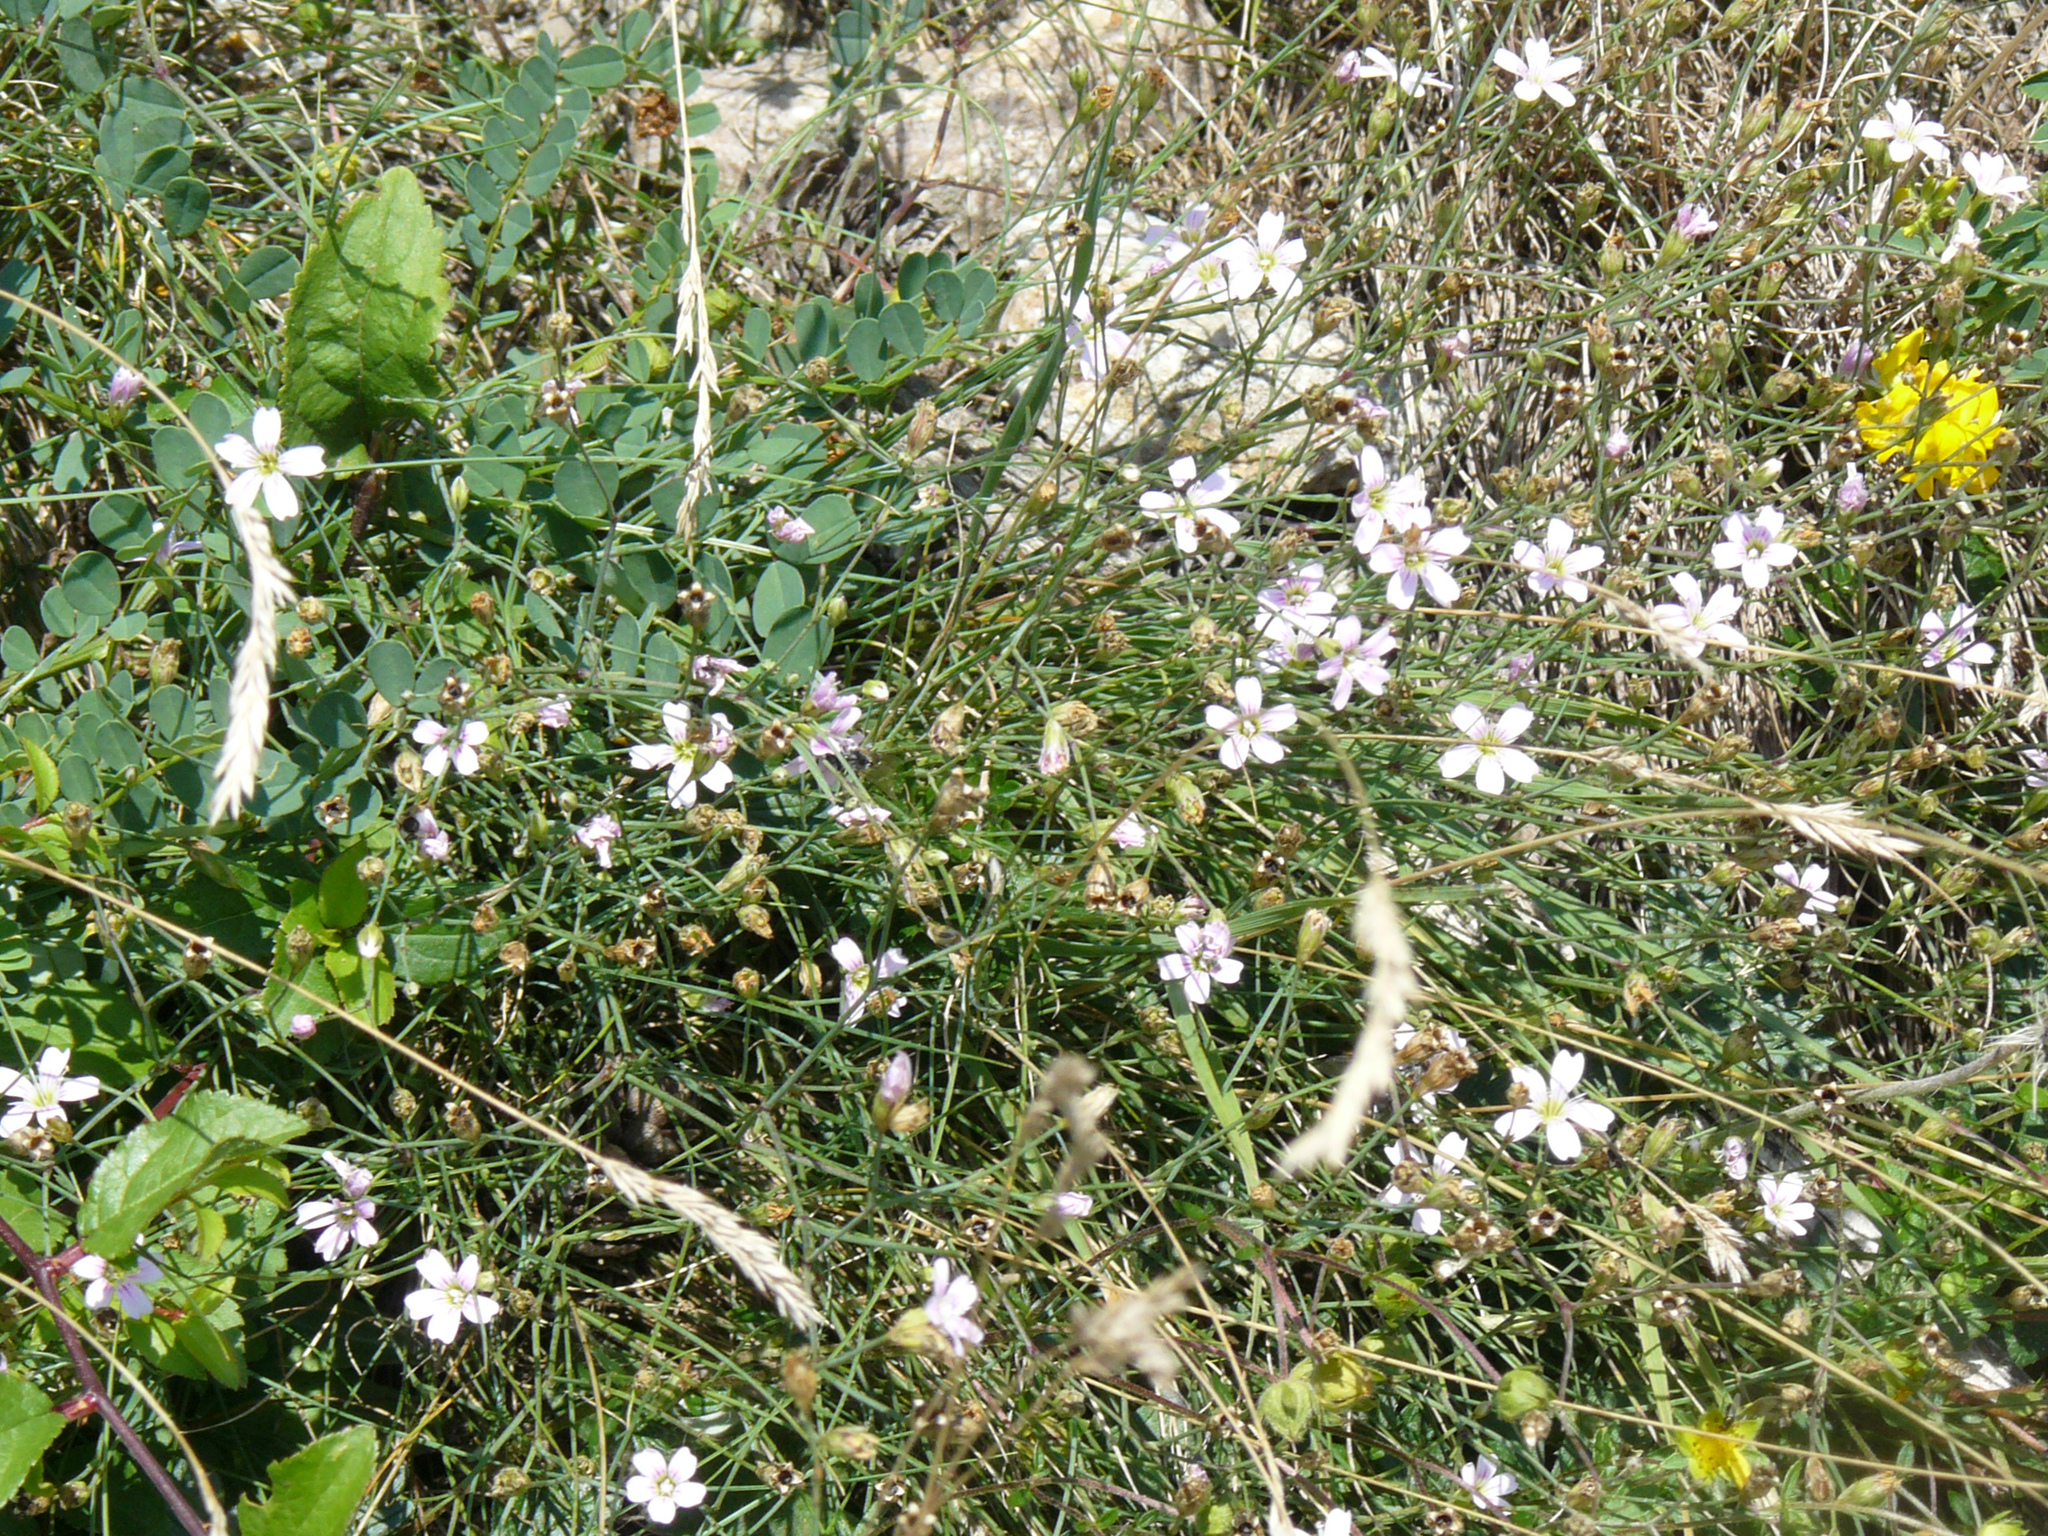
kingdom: Plantae
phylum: Tracheophyta
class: Magnoliopsida
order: Caryophyllales
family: Caryophyllaceae
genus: Petrorhagia
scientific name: Petrorhagia saxifraga
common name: Tunicflower
